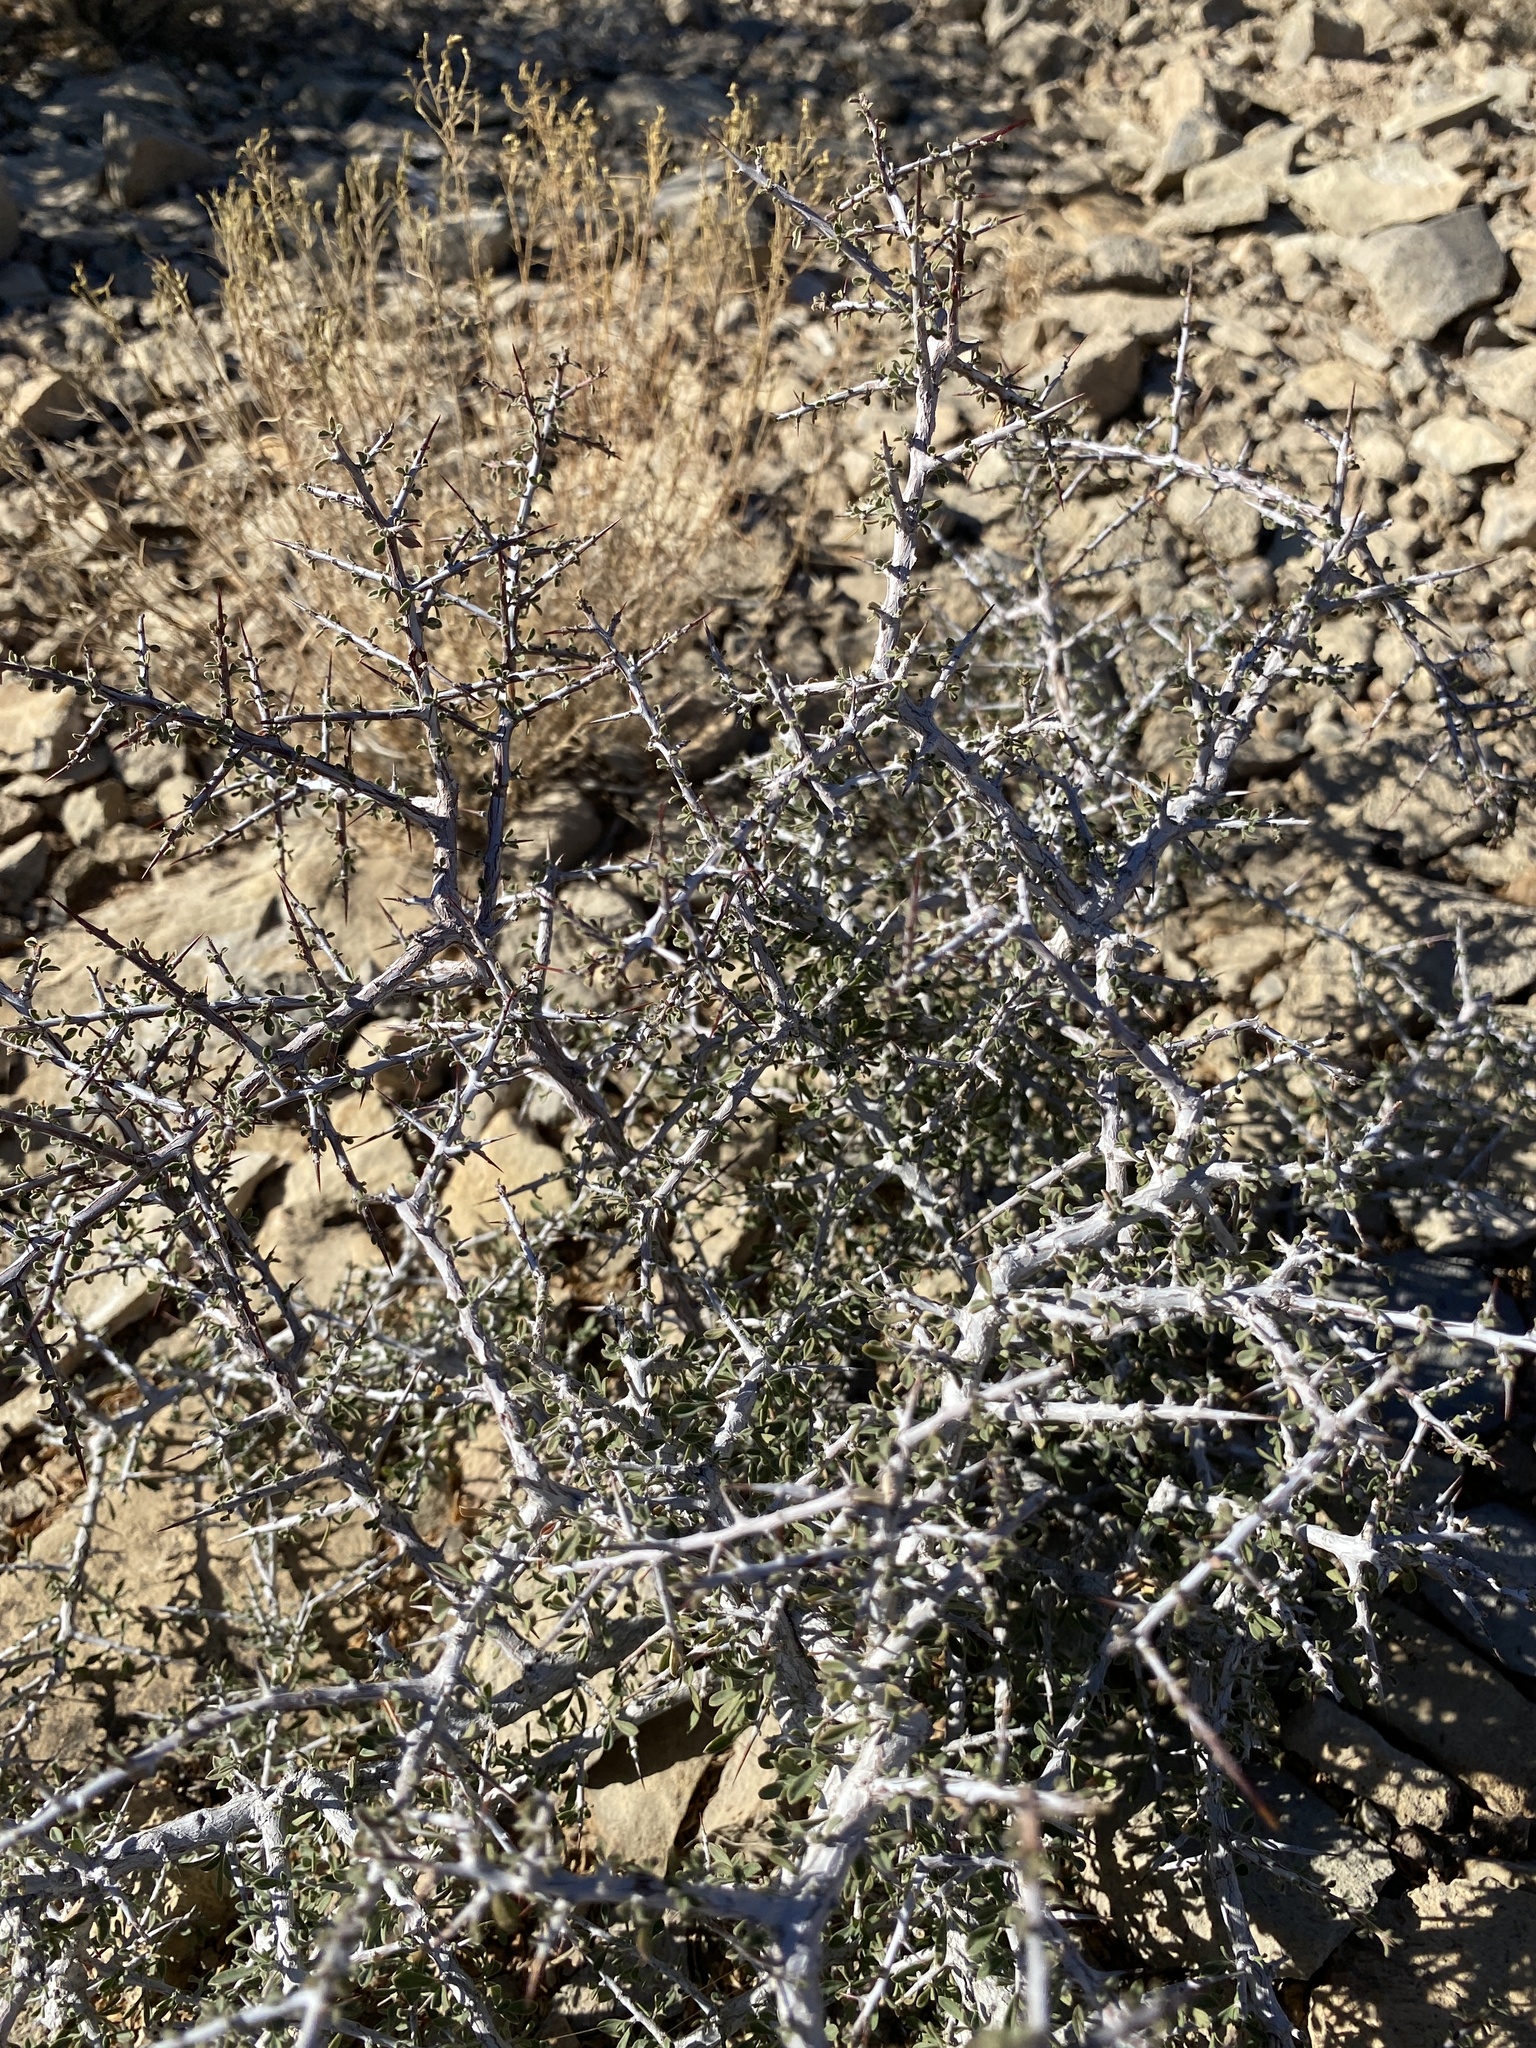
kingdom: Plantae
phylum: Tracheophyta
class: Magnoliopsida
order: Rosales
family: Rhamnaceae
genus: Condalia
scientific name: Condalia warnockii
